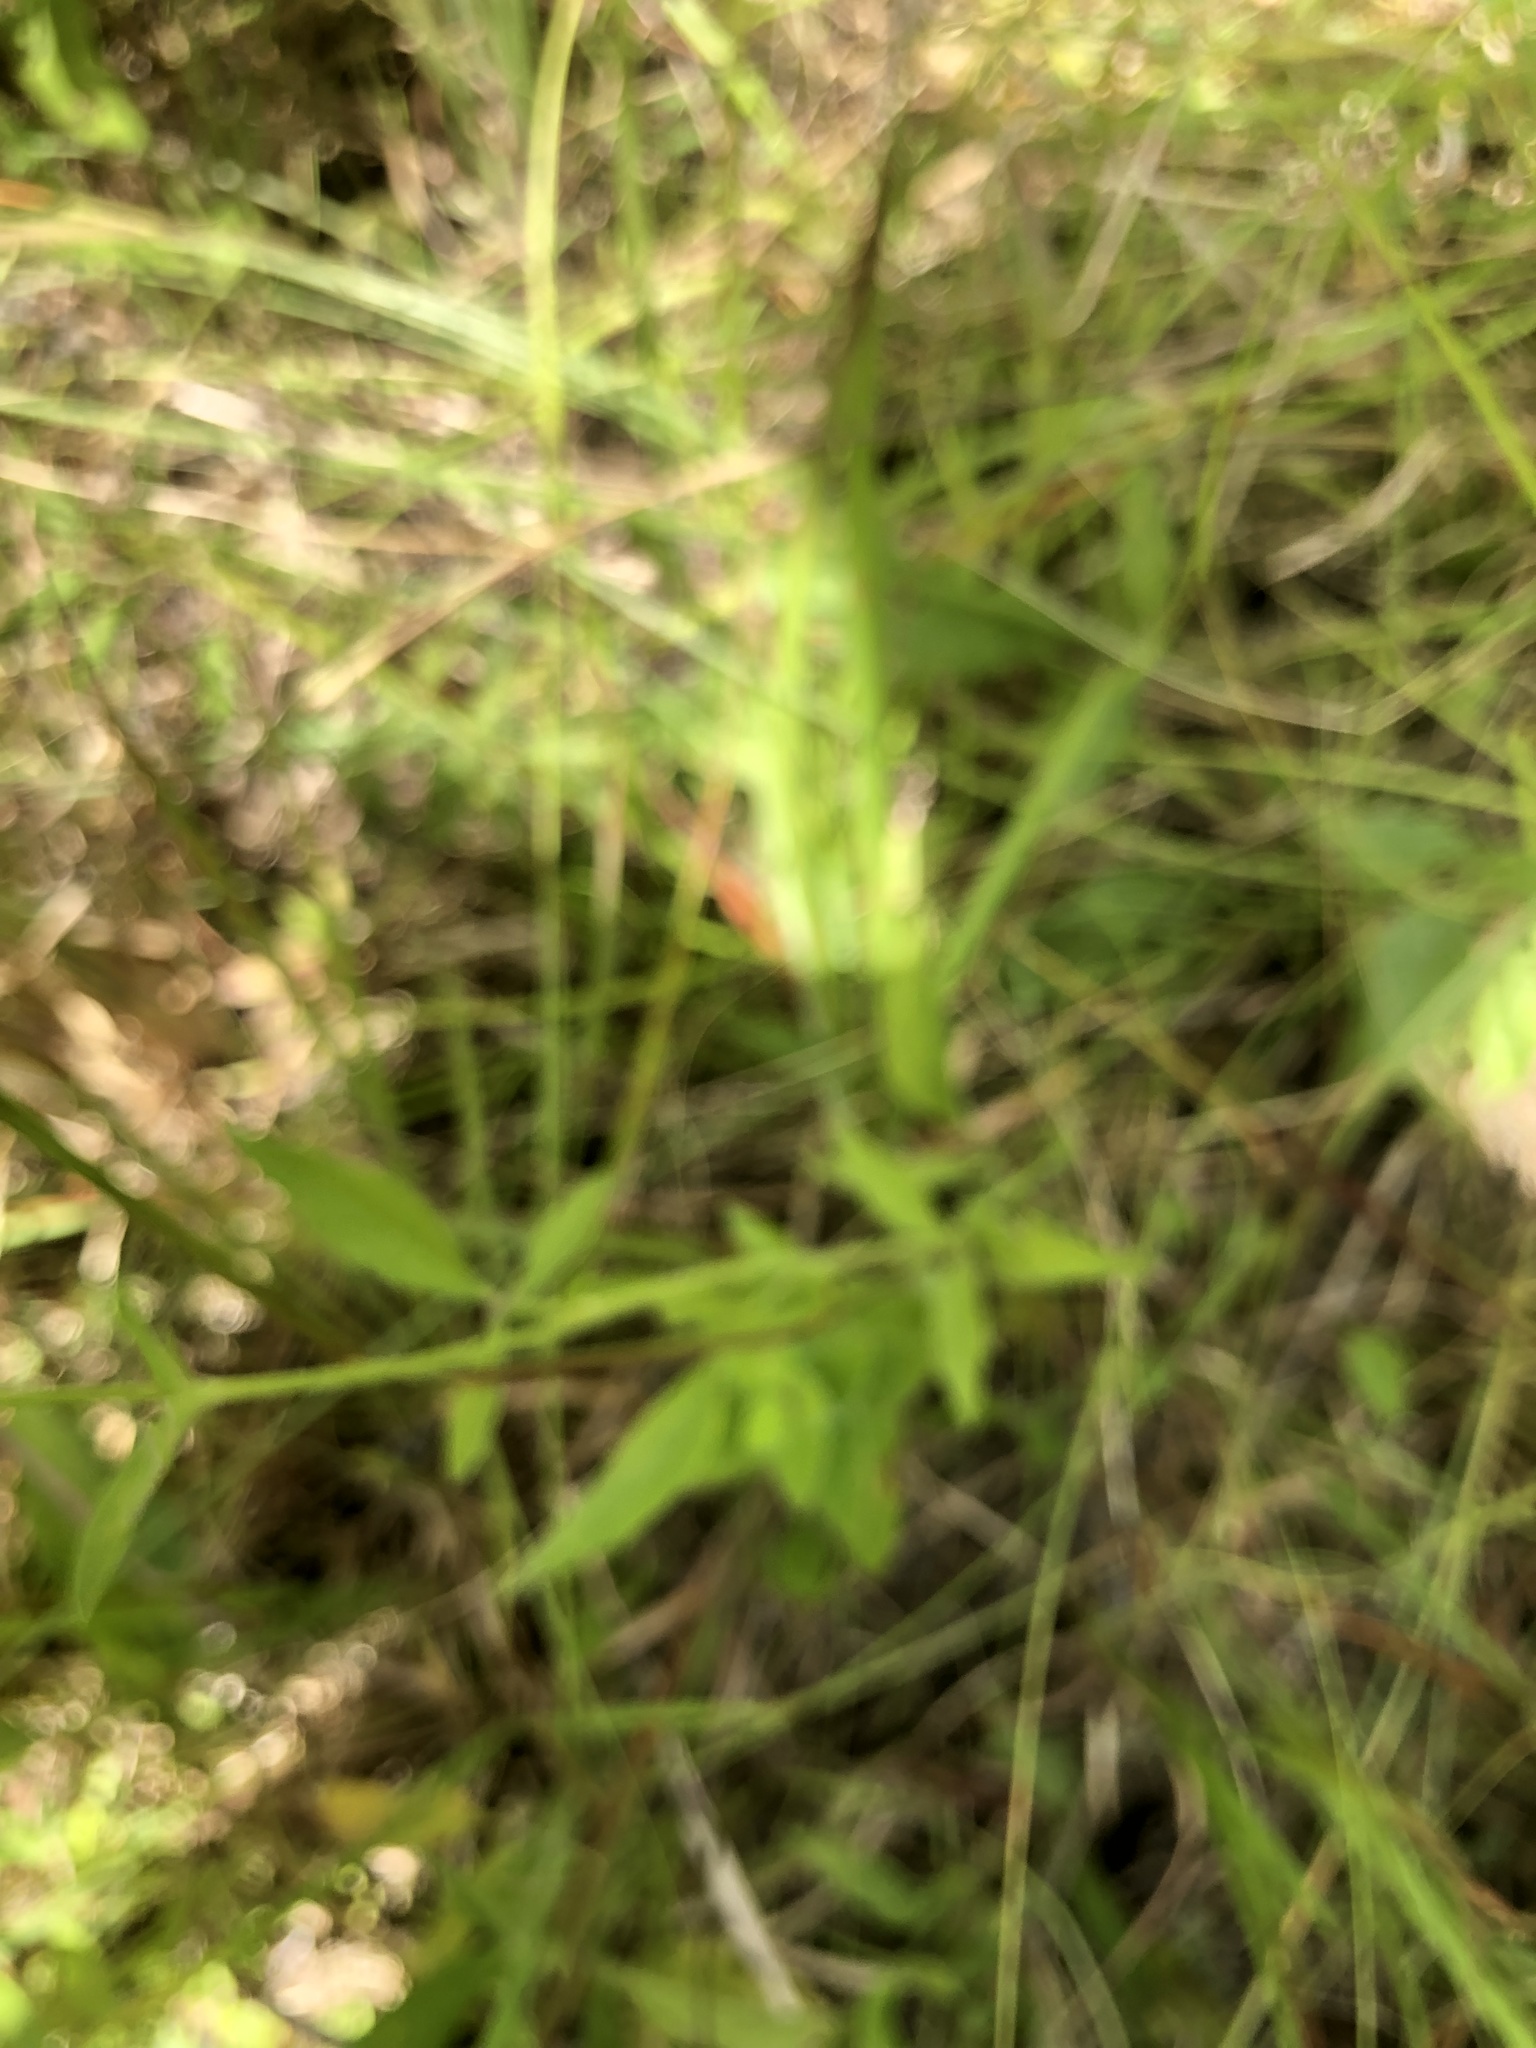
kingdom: Plantae
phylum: Tracheophyta
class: Magnoliopsida
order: Asterales
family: Asteraceae
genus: Ratibida
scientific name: Ratibida pinnata
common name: Drooping prairie-coneflower
